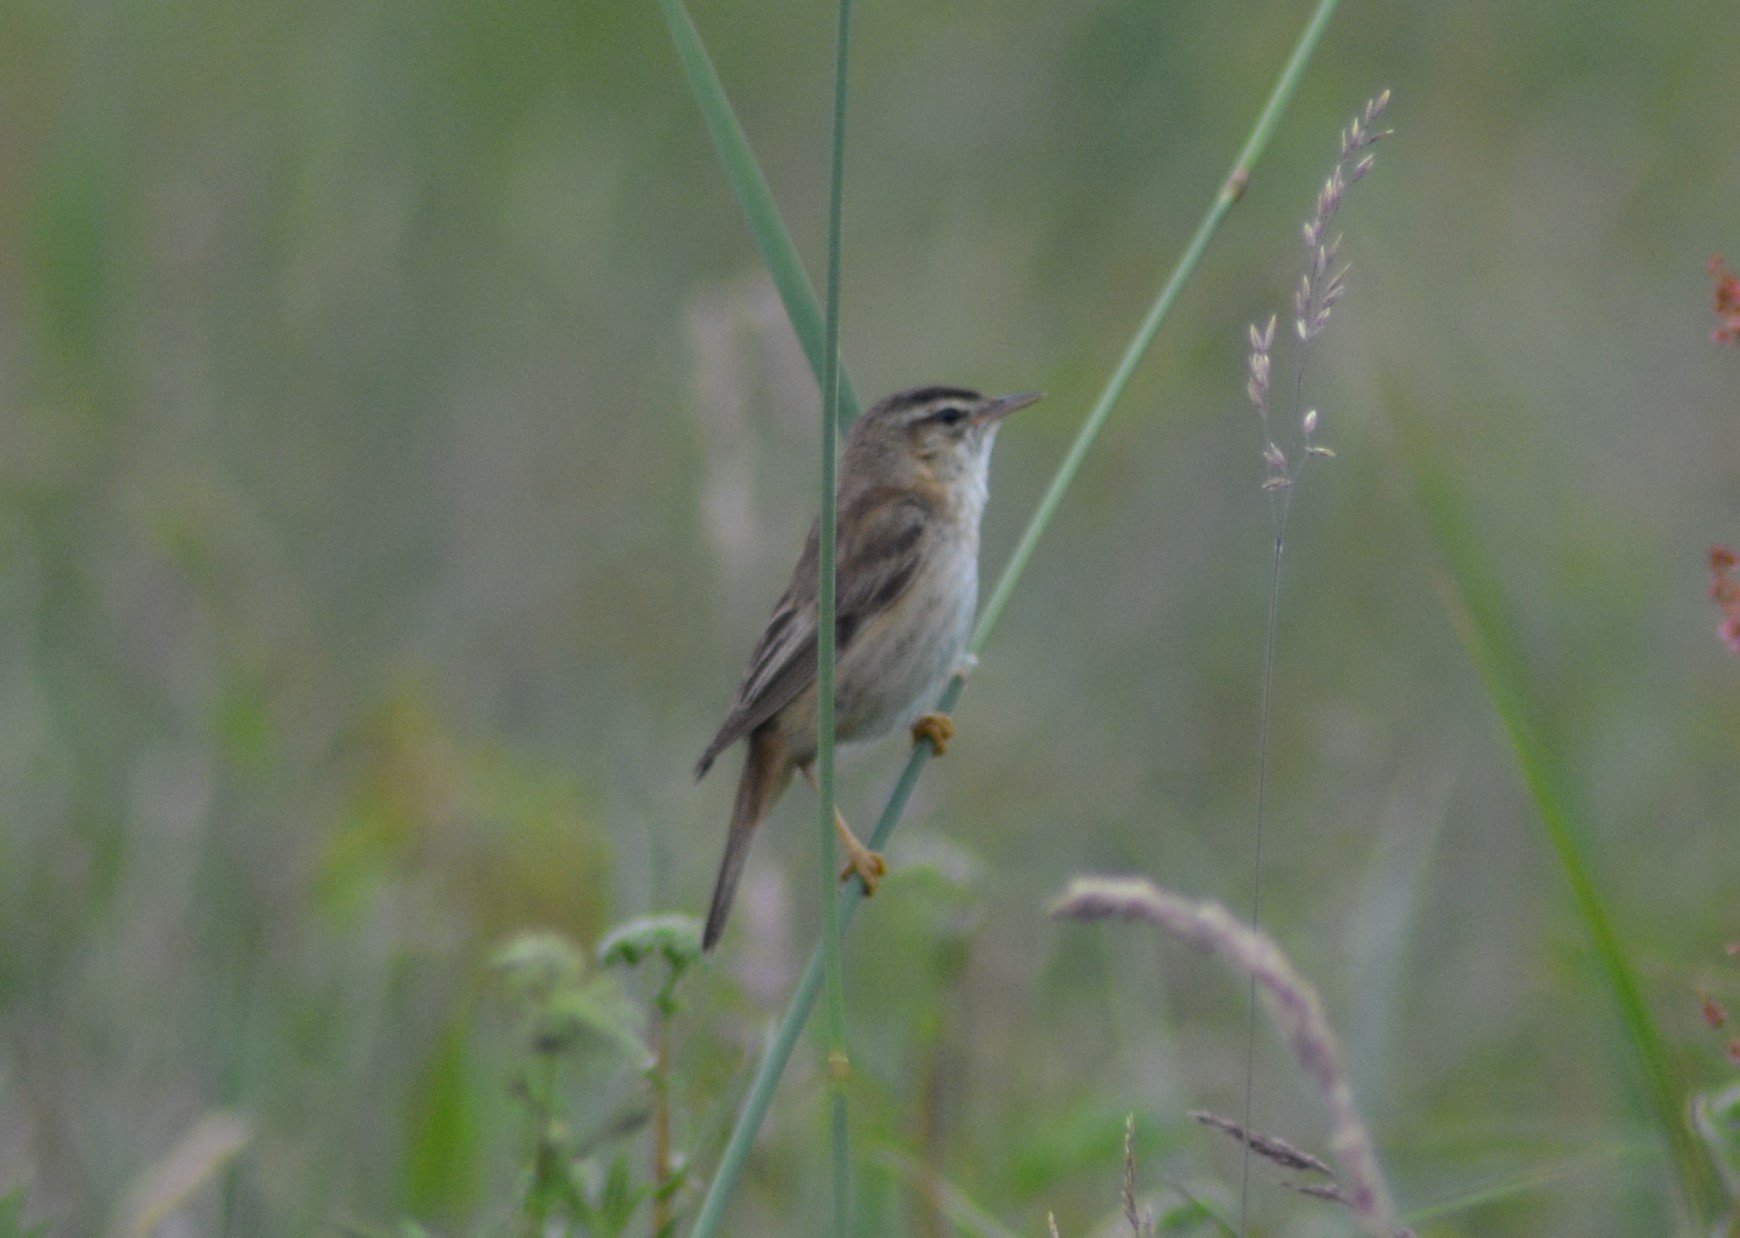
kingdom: Animalia
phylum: Chordata
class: Aves
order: Passeriformes
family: Acrocephalidae
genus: Acrocephalus
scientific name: Acrocephalus schoenobaenus
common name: Sedge warbler
